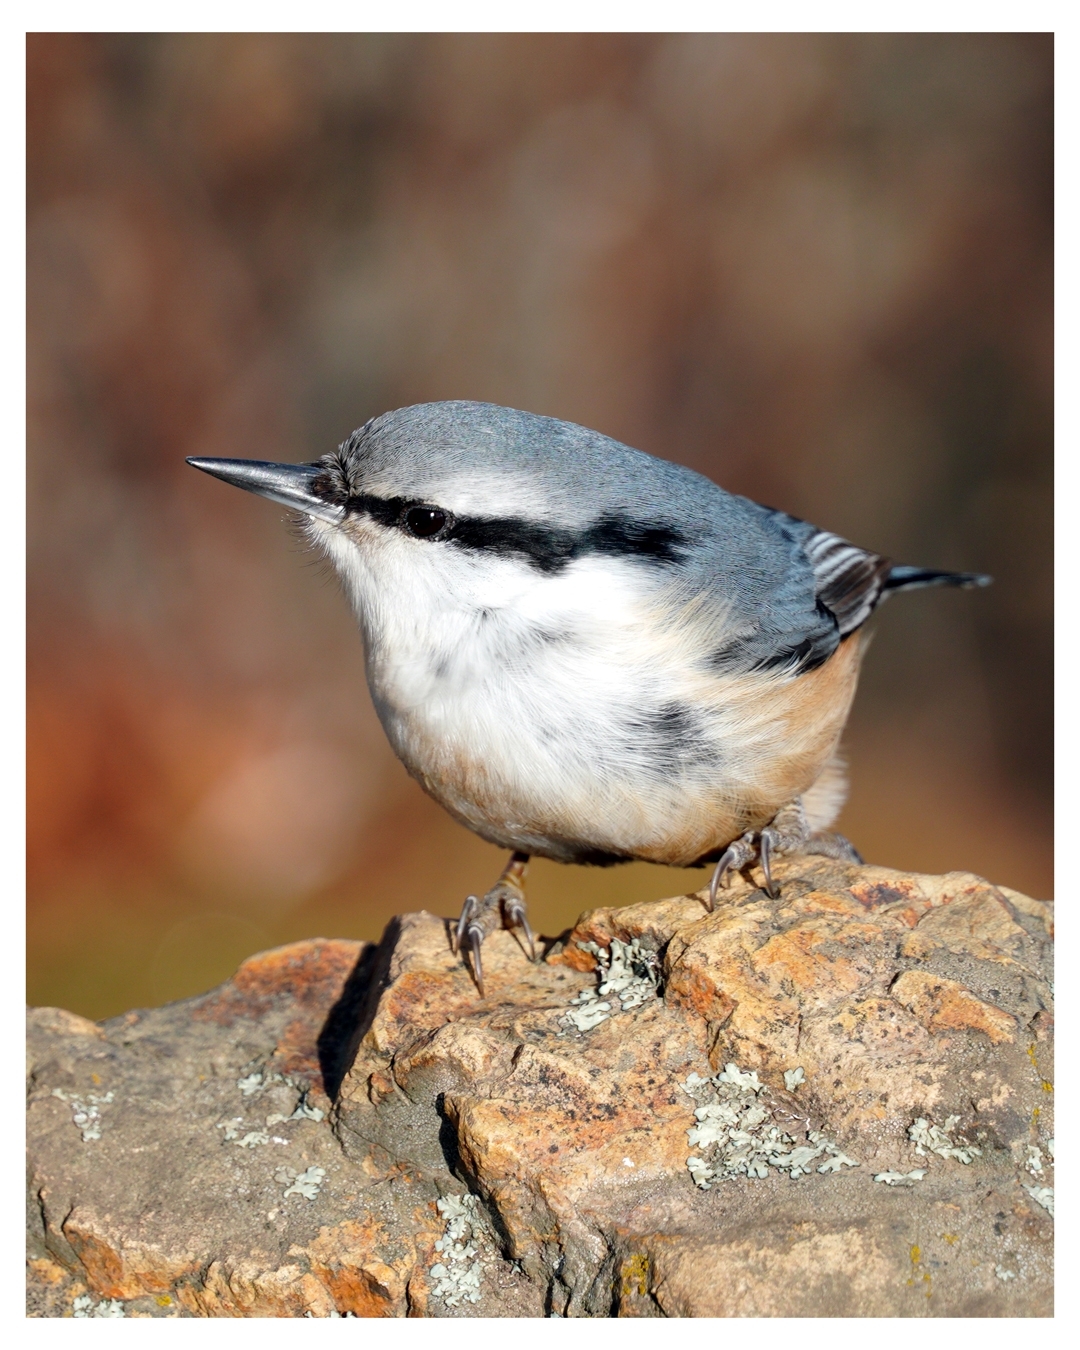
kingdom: Animalia
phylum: Chordata
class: Aves
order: Passeriformes
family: Sittidae
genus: Sitta
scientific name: Sitta europaea
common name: Eurasian nuthatch
